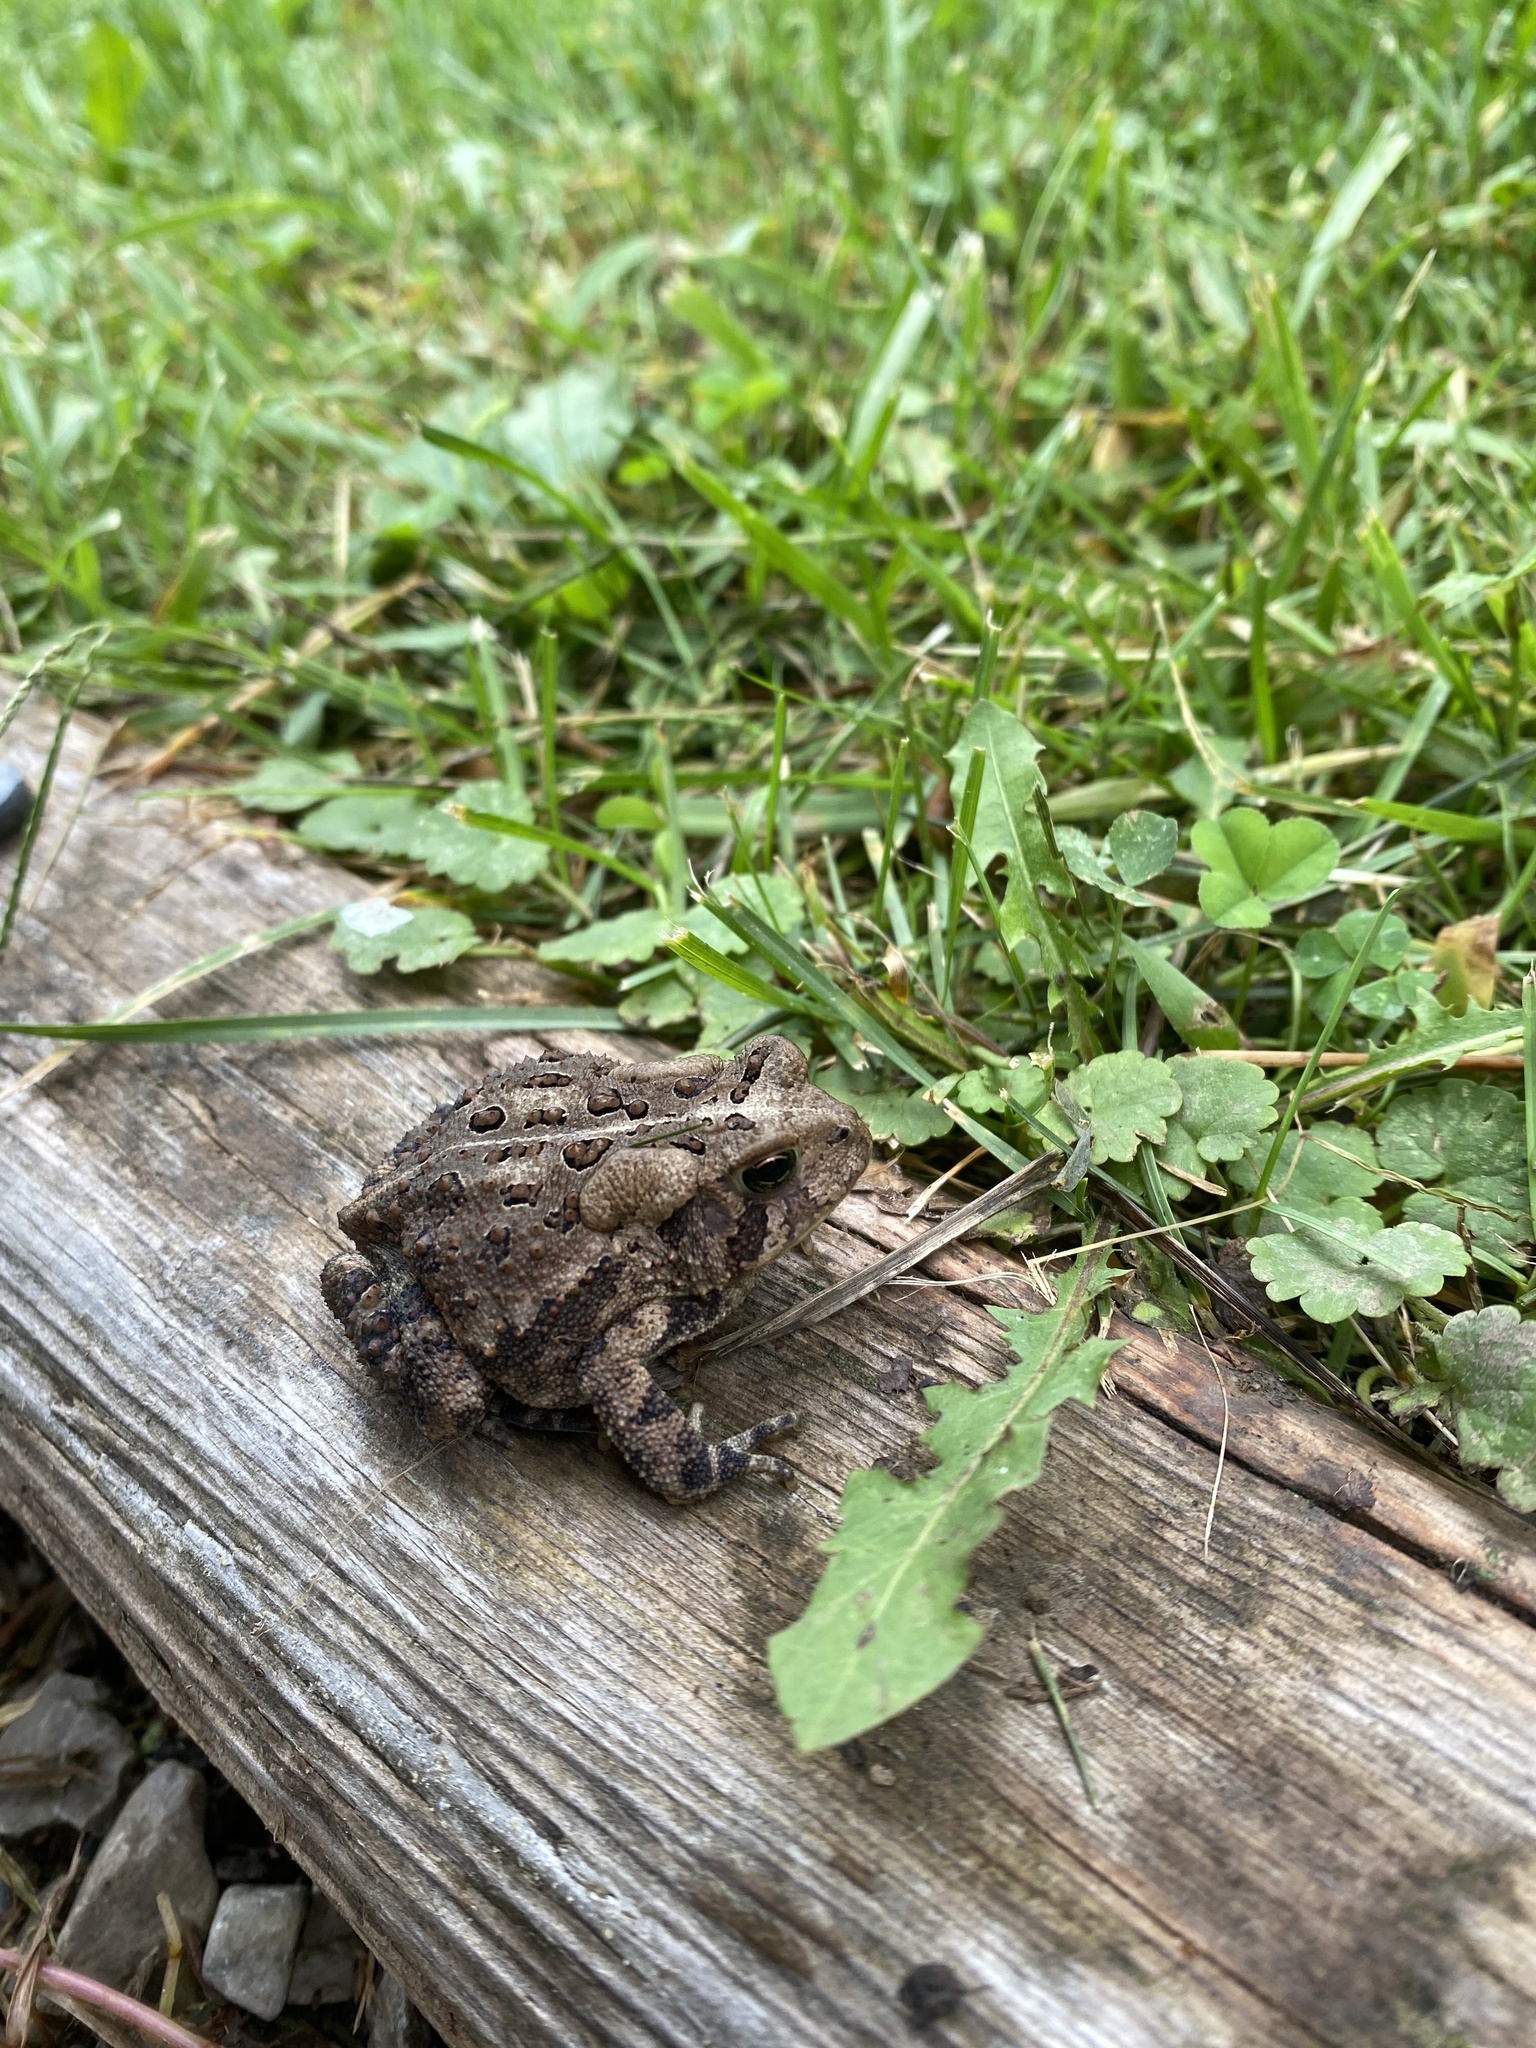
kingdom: Animalia
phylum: Chordata
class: Amphibia
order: Anura
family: Bufonidae
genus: Anaxyrus
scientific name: Anaxyrus americanus
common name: American toad
